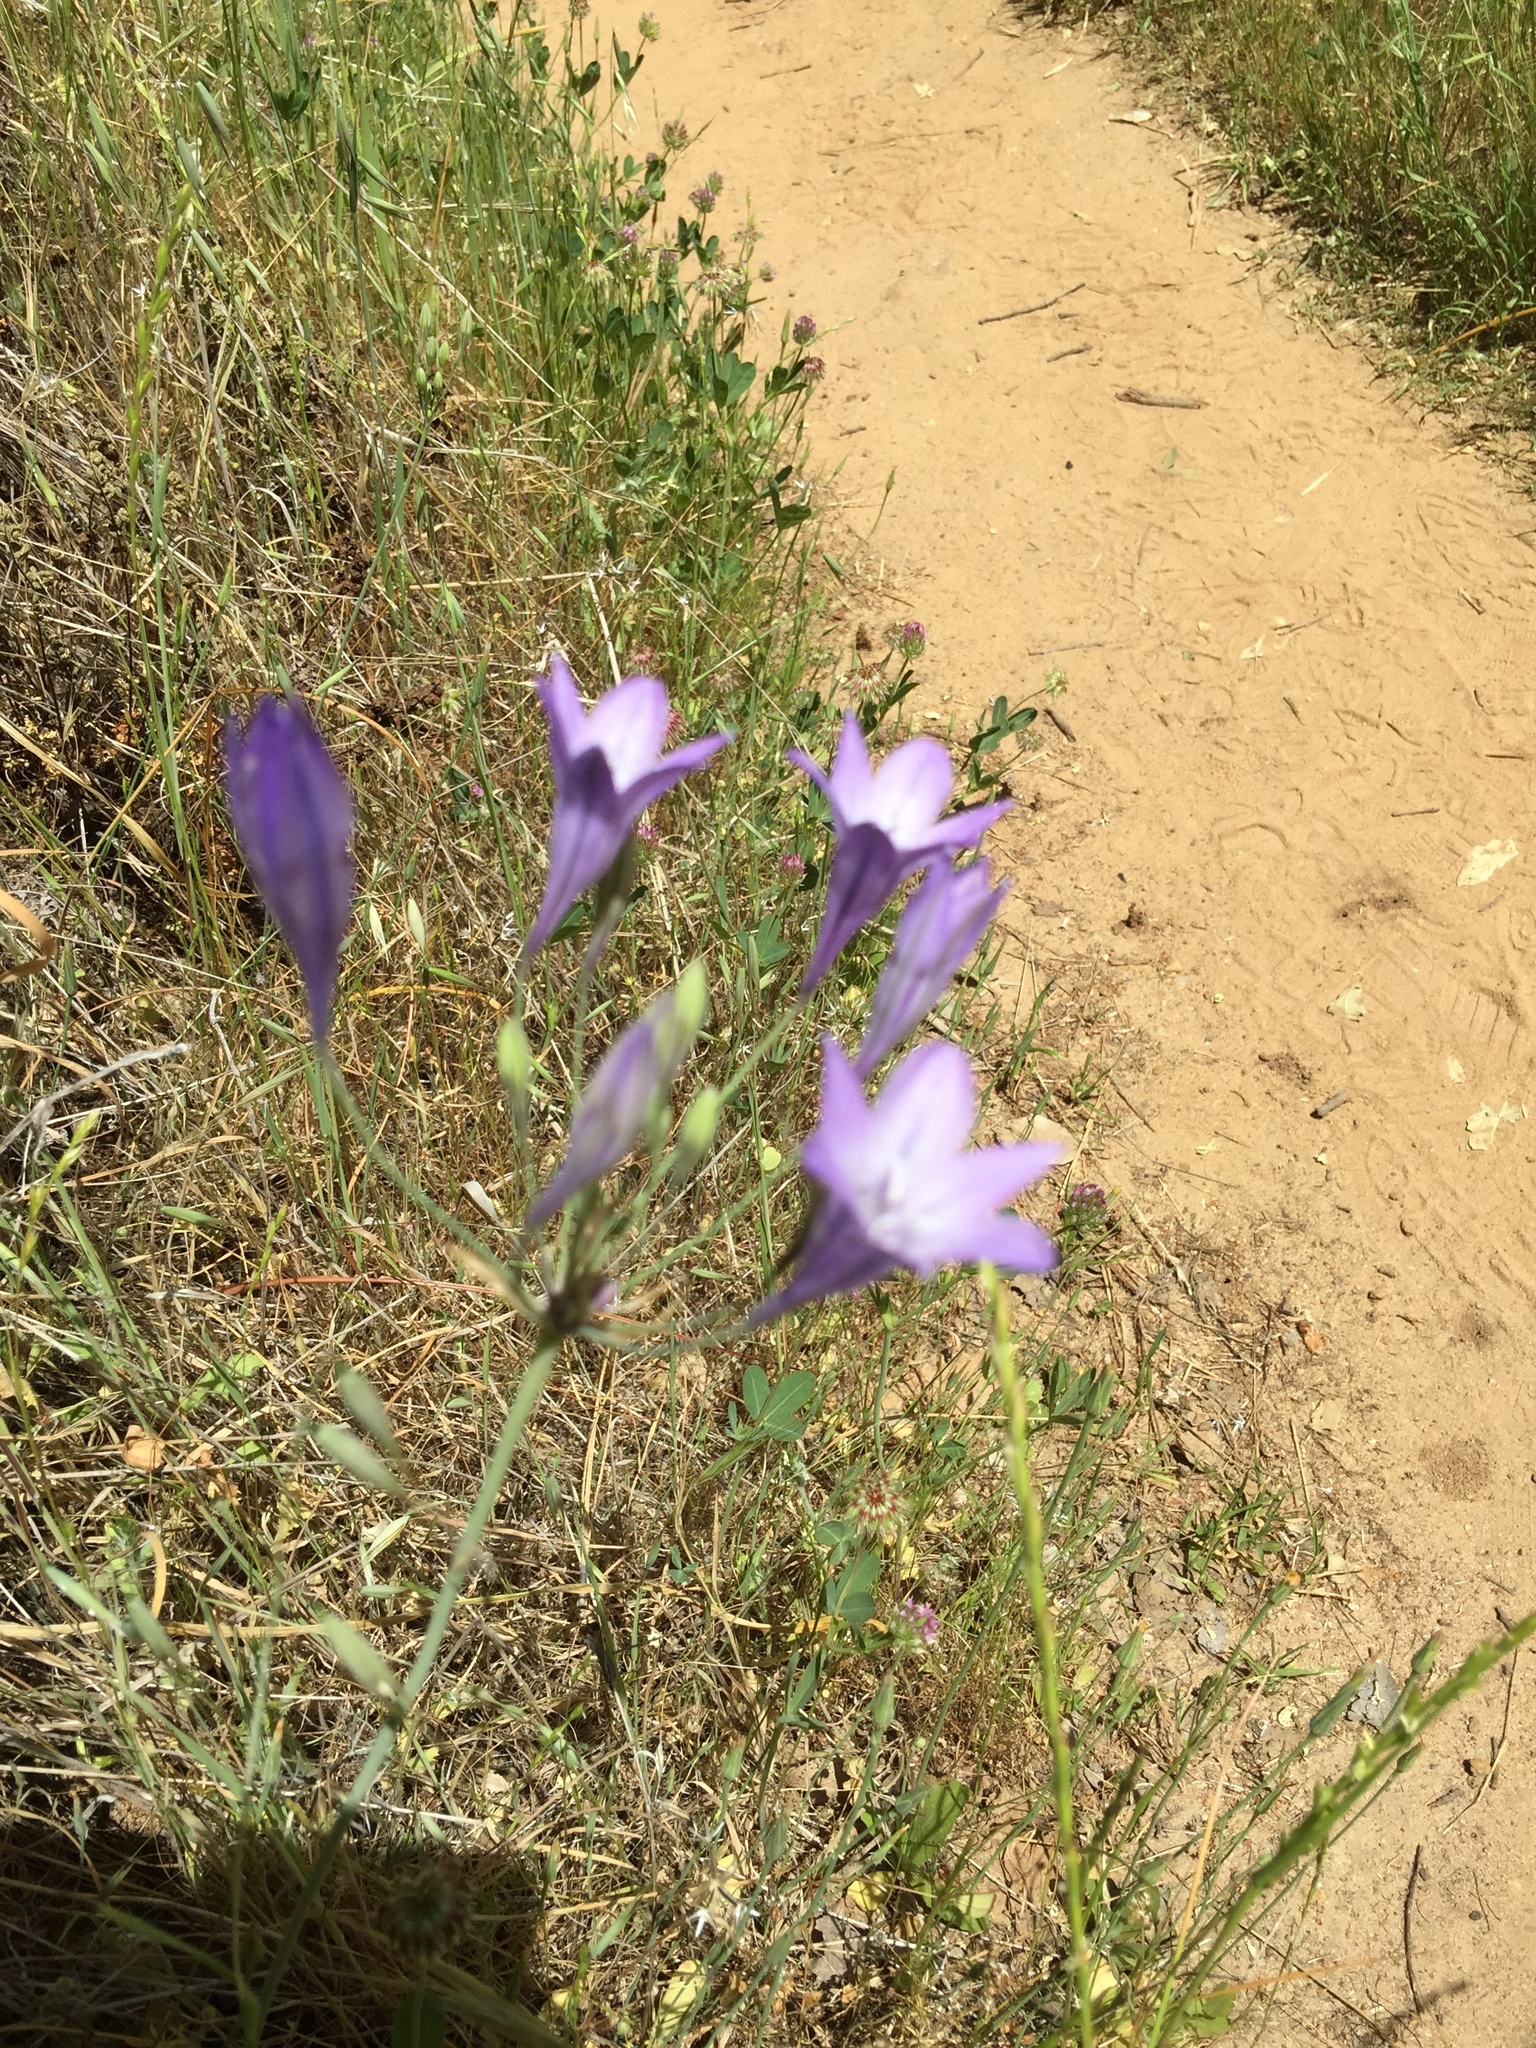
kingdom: Plantae
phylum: Tracheophyta
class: Liliopsida
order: Asparagales
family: Asparagaceae
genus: Triteleia
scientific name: Triteleia laxa
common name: Triplet-lily
